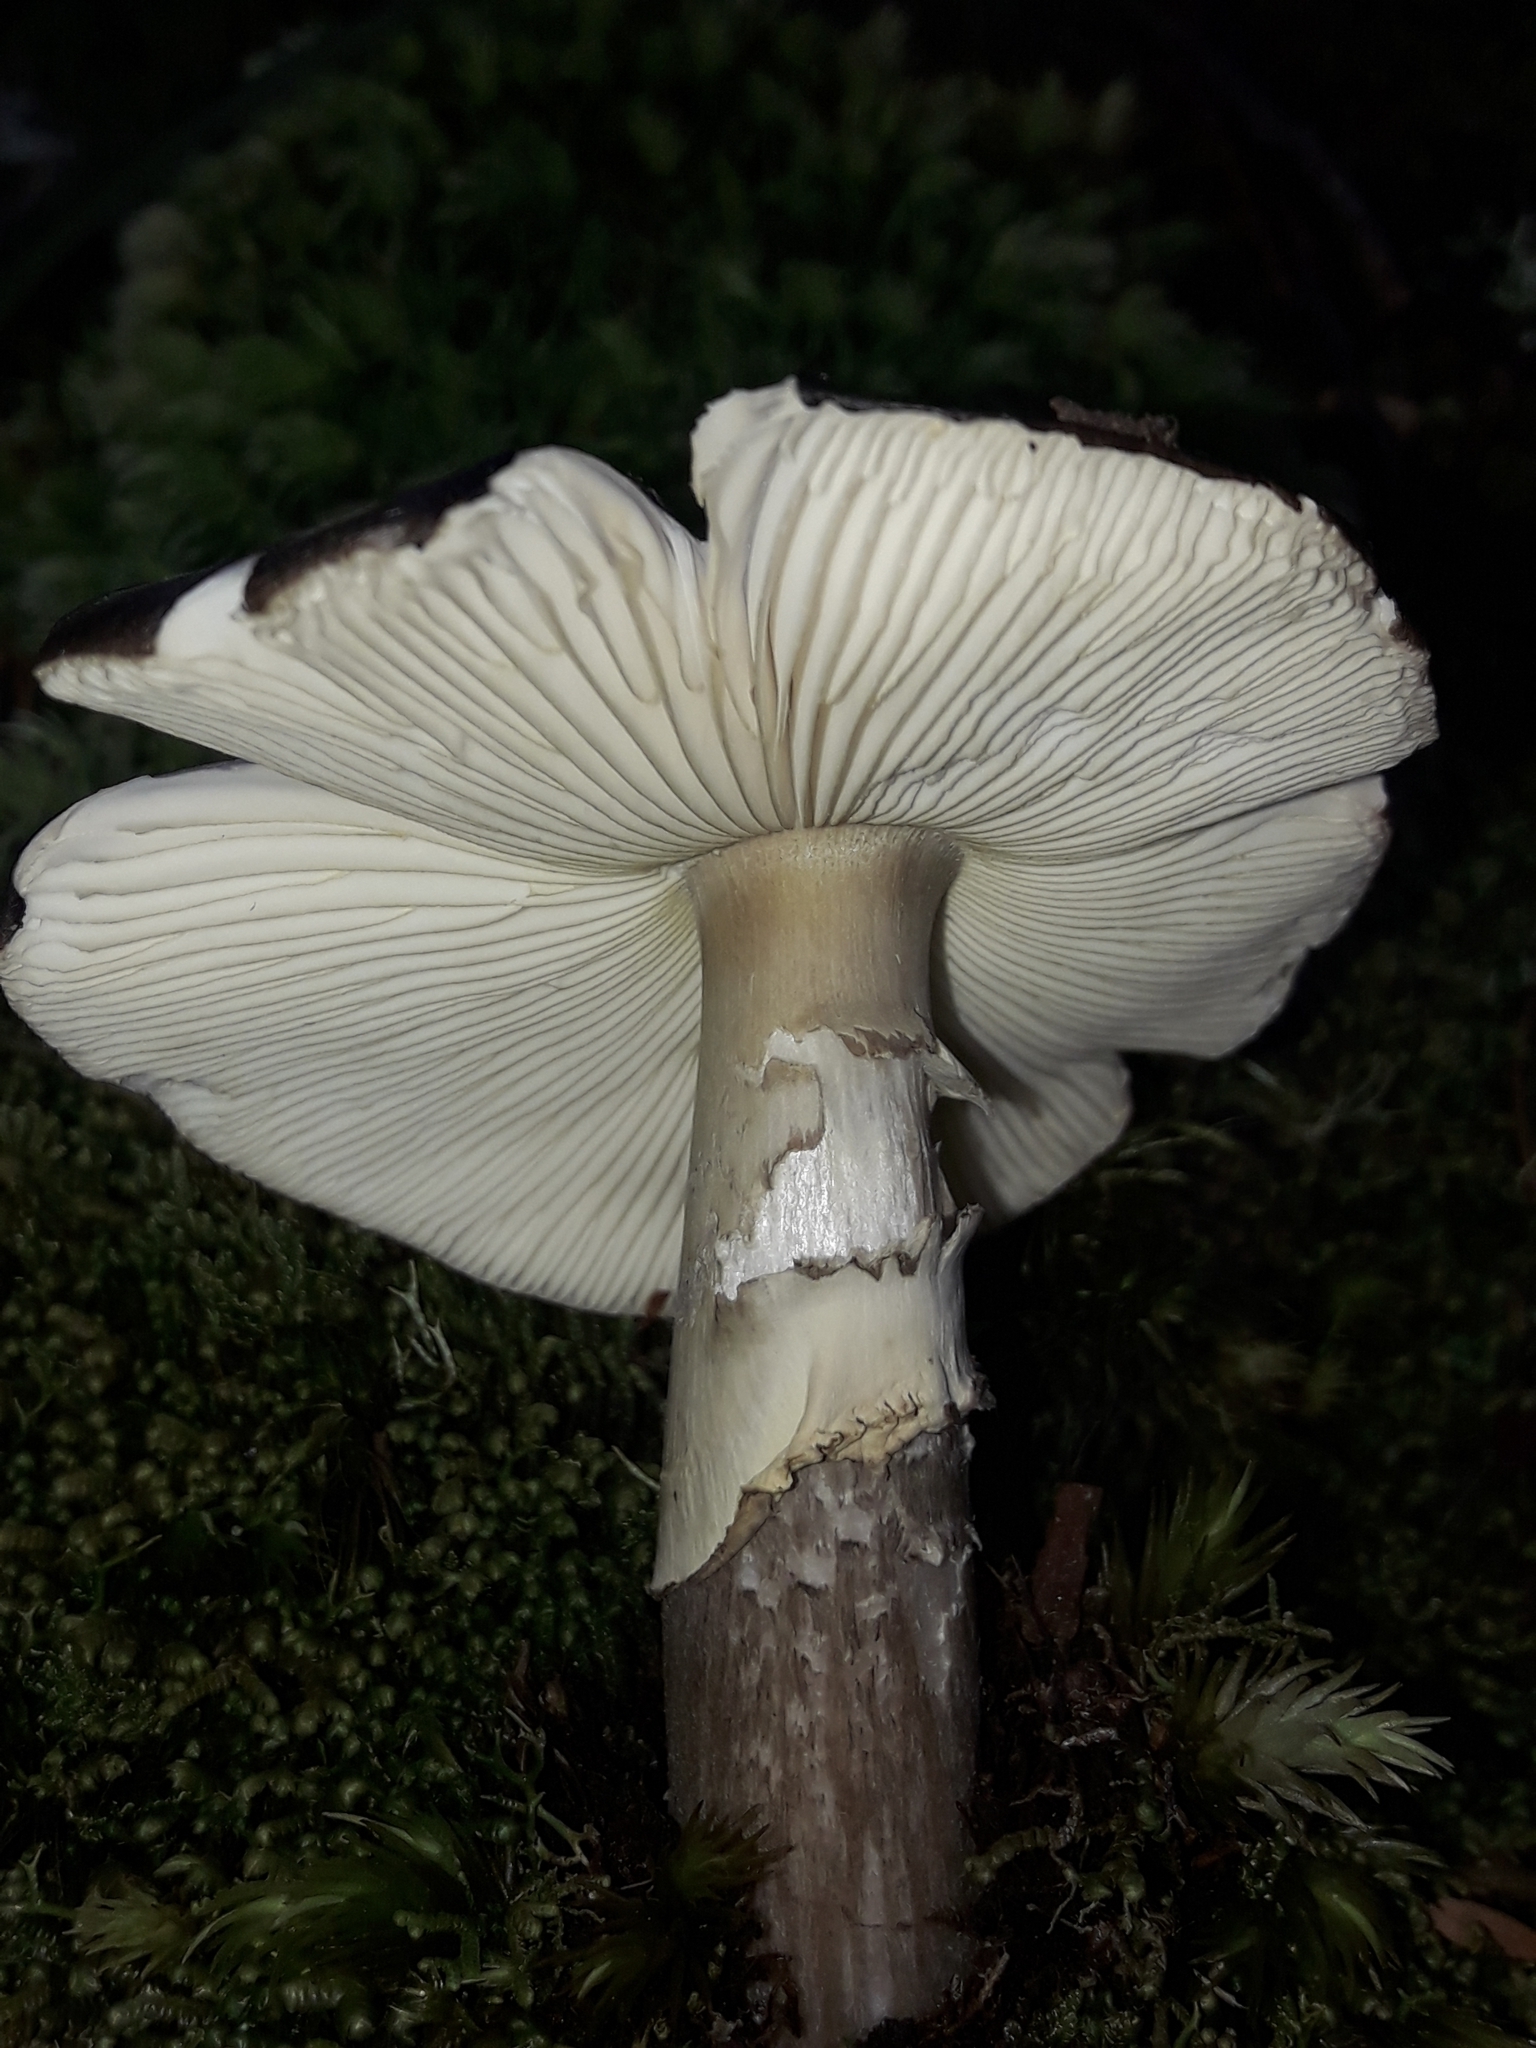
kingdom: Fungi
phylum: Basidiomycota
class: Agaricomycetes
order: Agaricales
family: Amanitaceae
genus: Amanita
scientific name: Amanita nothofagi
